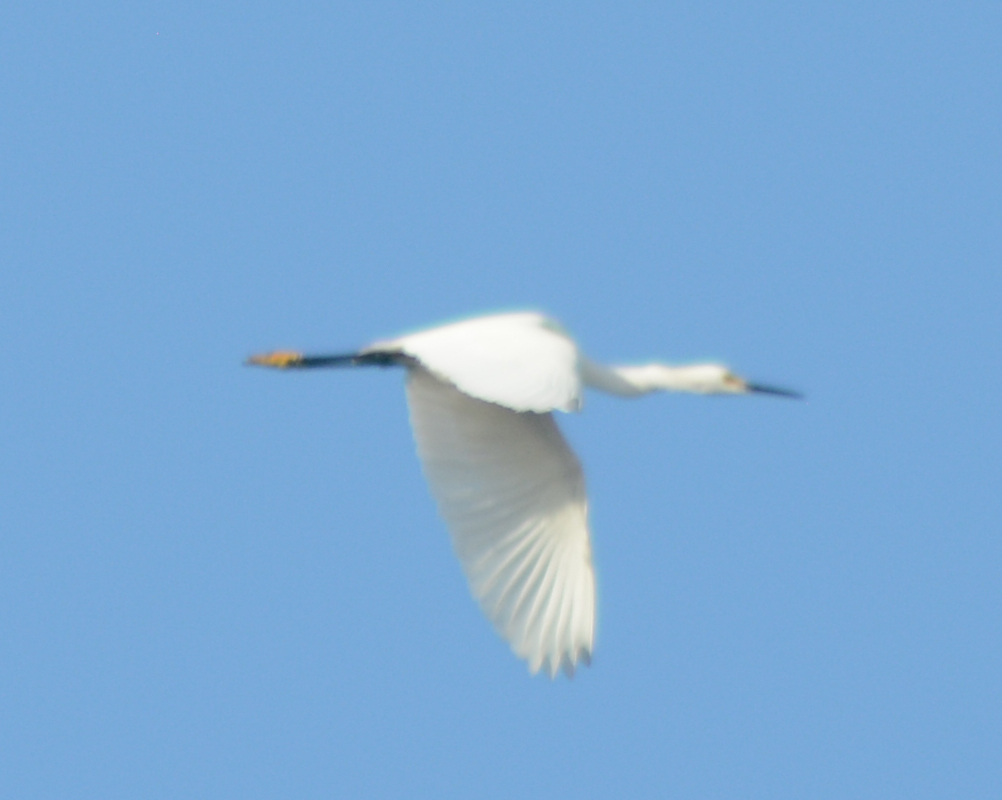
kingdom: Animalia
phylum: Chordata
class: Aves
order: Pelecaniformes
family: Ardeidae
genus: Egretta
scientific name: Egretta thula
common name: Snowy egret
